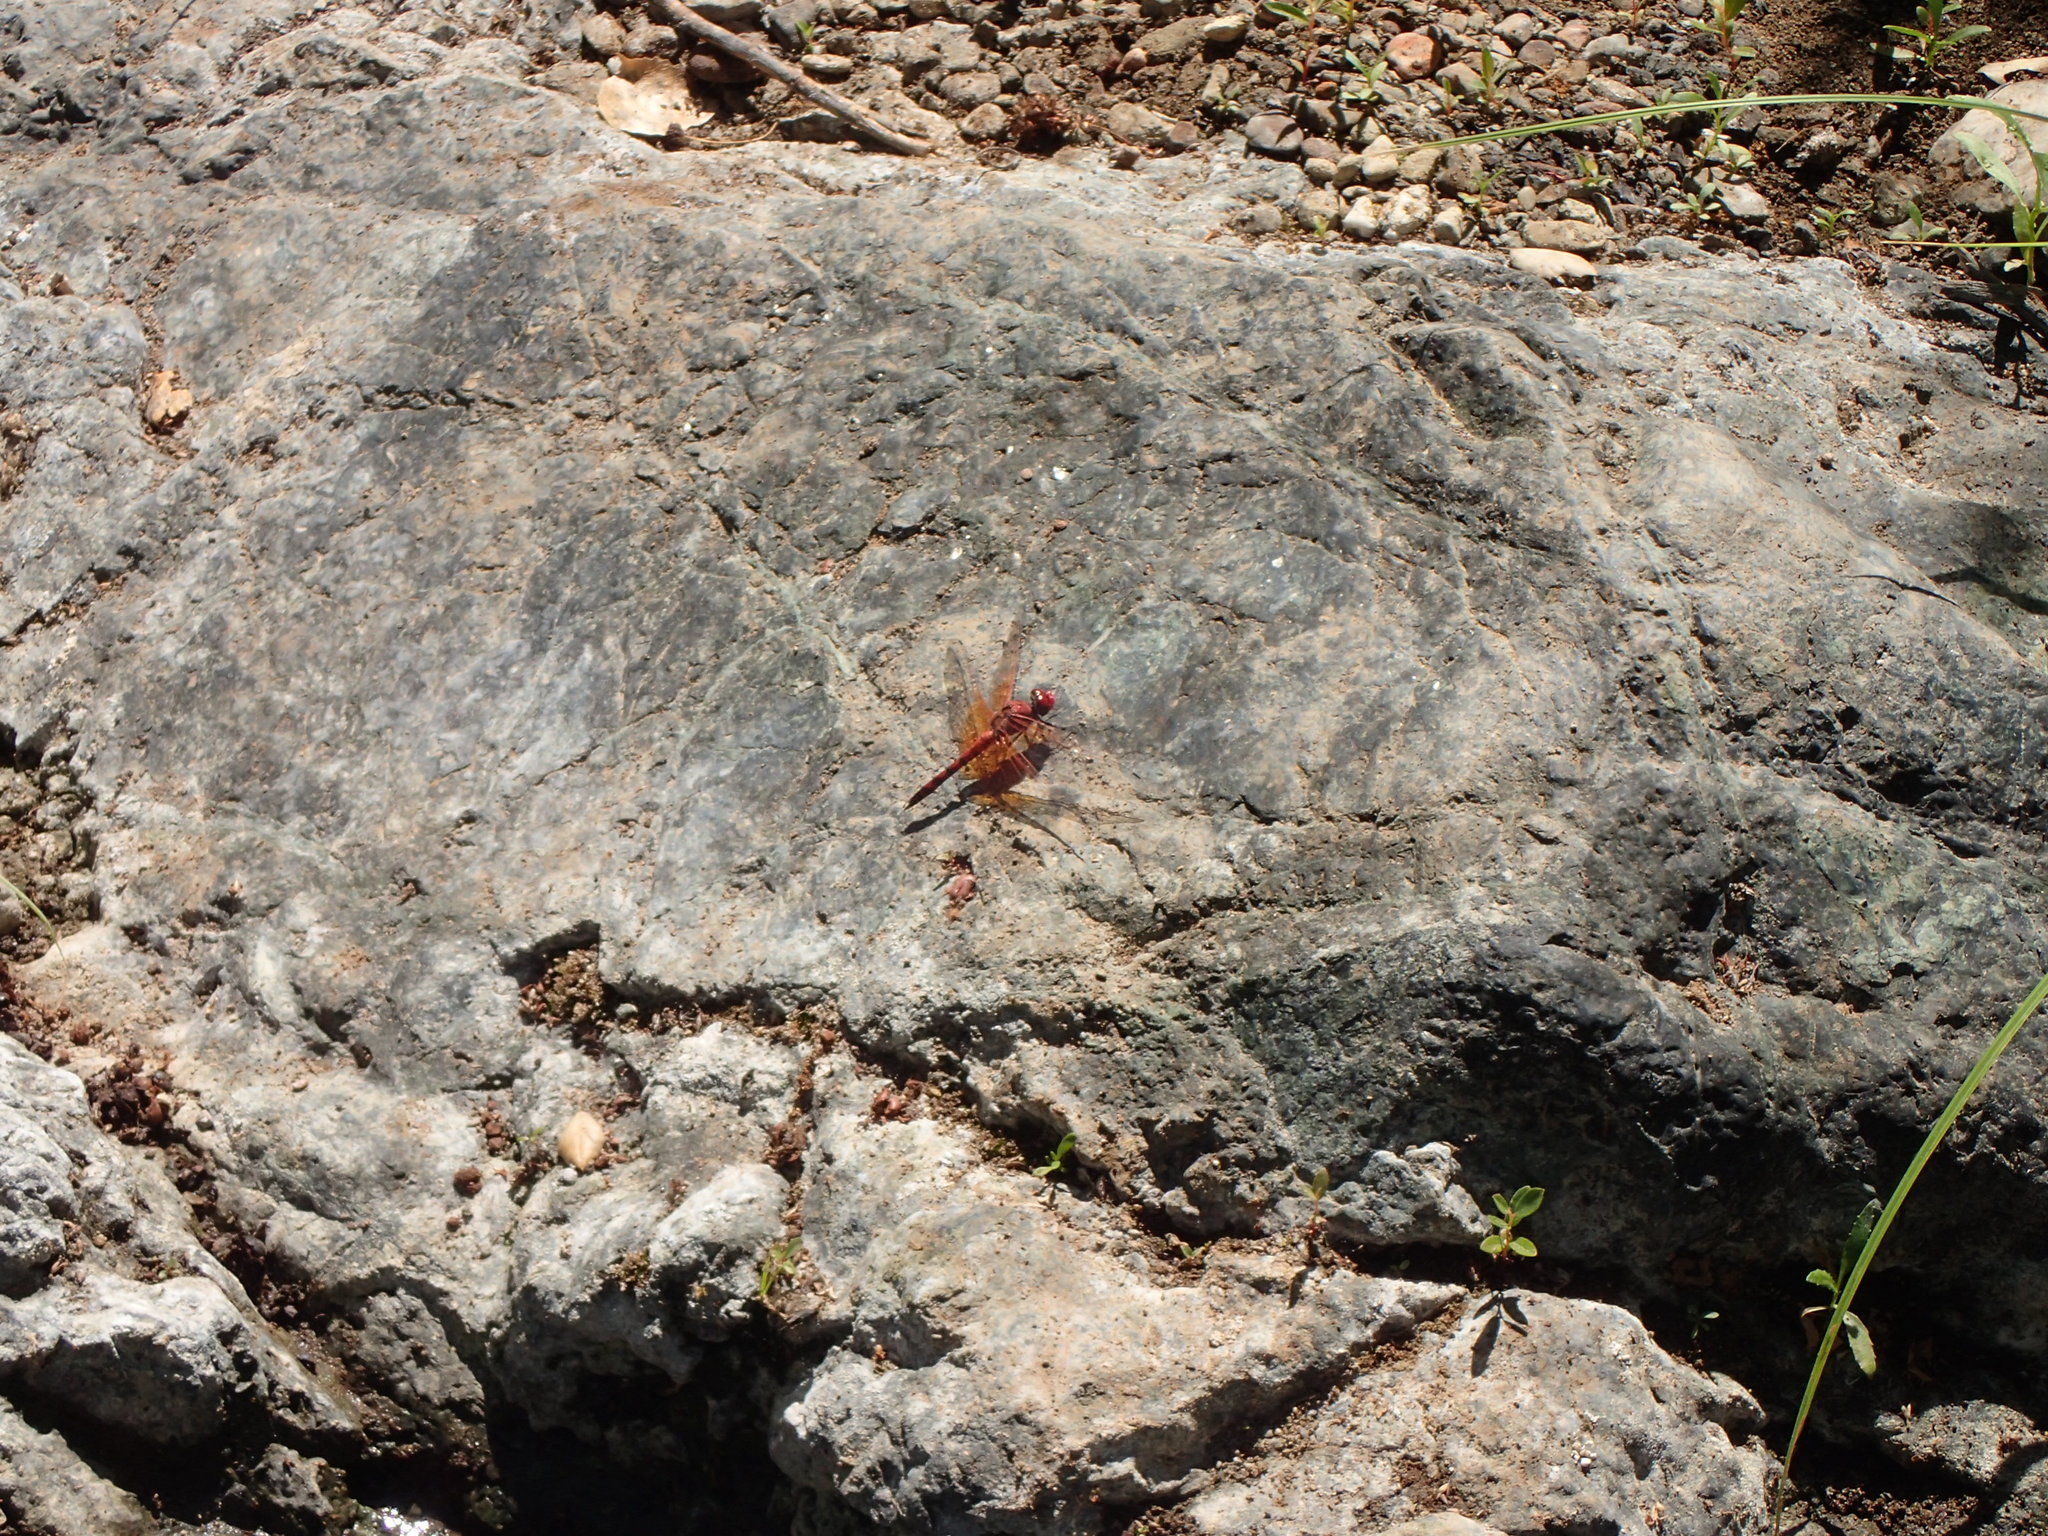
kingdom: Animalia
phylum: Arthropoda
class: Insecta
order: Odonata
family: Libellulidae
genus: Paltothemis
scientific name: Paltothemis lineatipes
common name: Red rock skimmer
